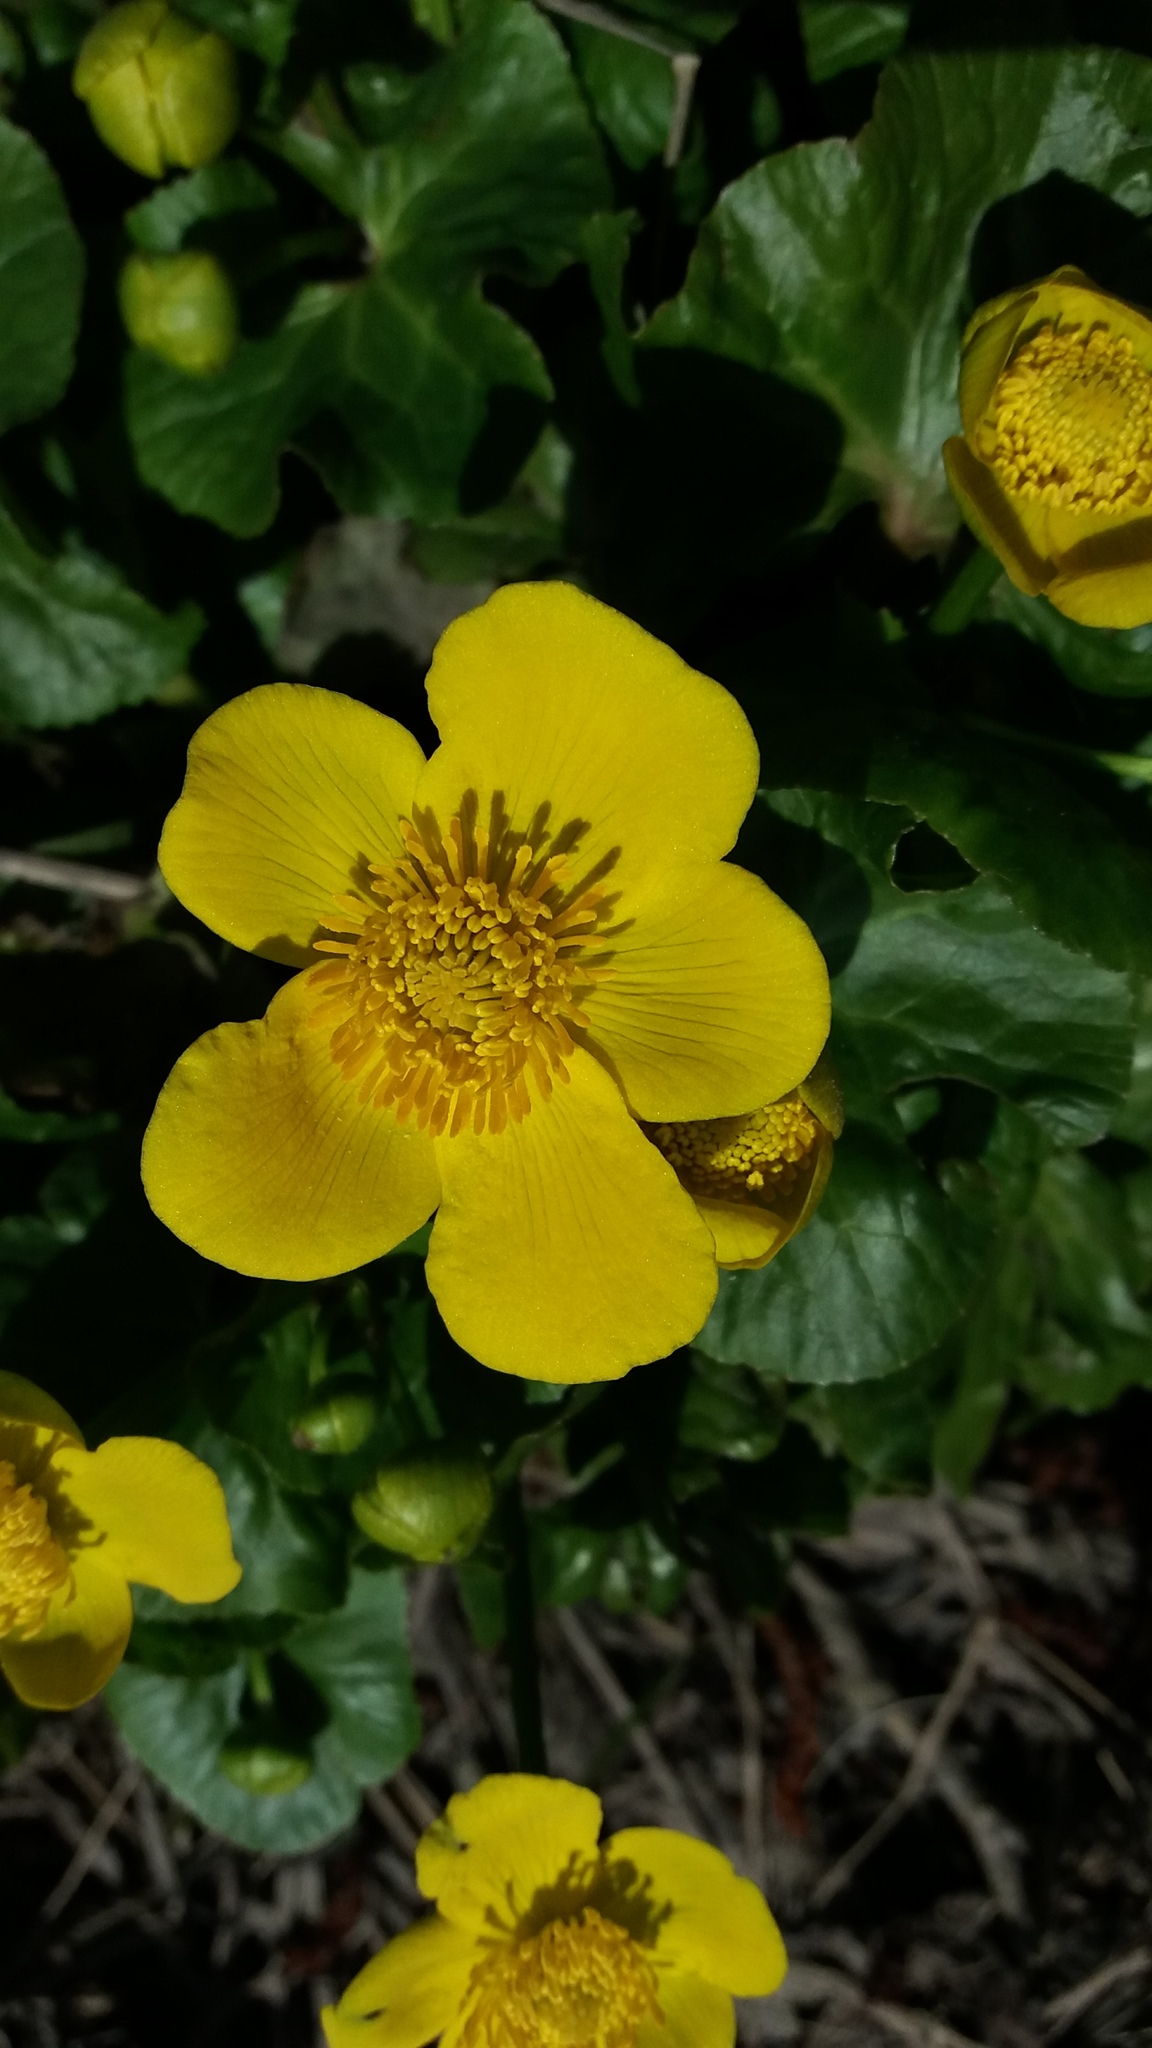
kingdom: Plantae
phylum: Tracheophyta
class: Magnoliopsida
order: Ranunculales
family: Ranunculaceae
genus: Caltha
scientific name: Caltha palustris
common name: Marsh marigold
